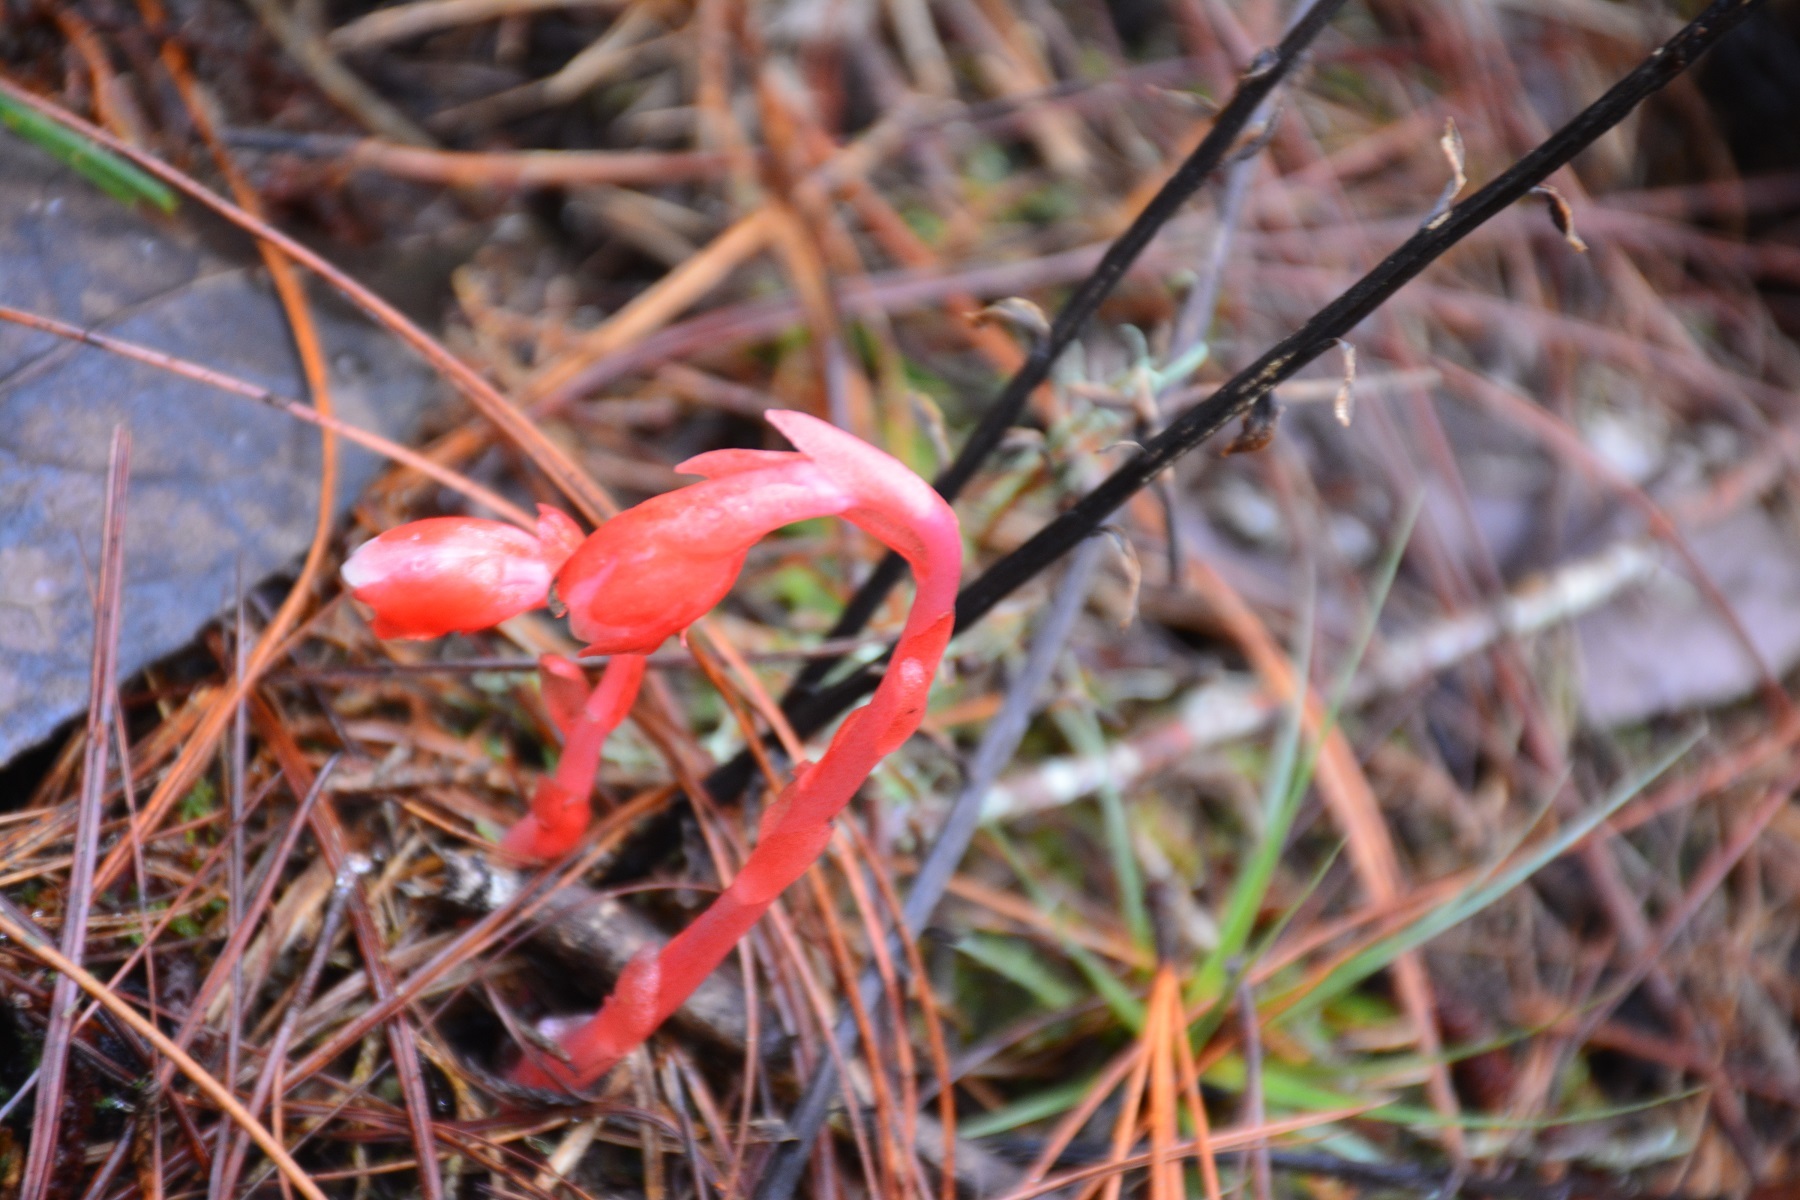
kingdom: Plantae
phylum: Tracheophyta
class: Magnoliopsida
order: Ericales
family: Ericaceae
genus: Monotropa
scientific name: Monotropa coccinea
